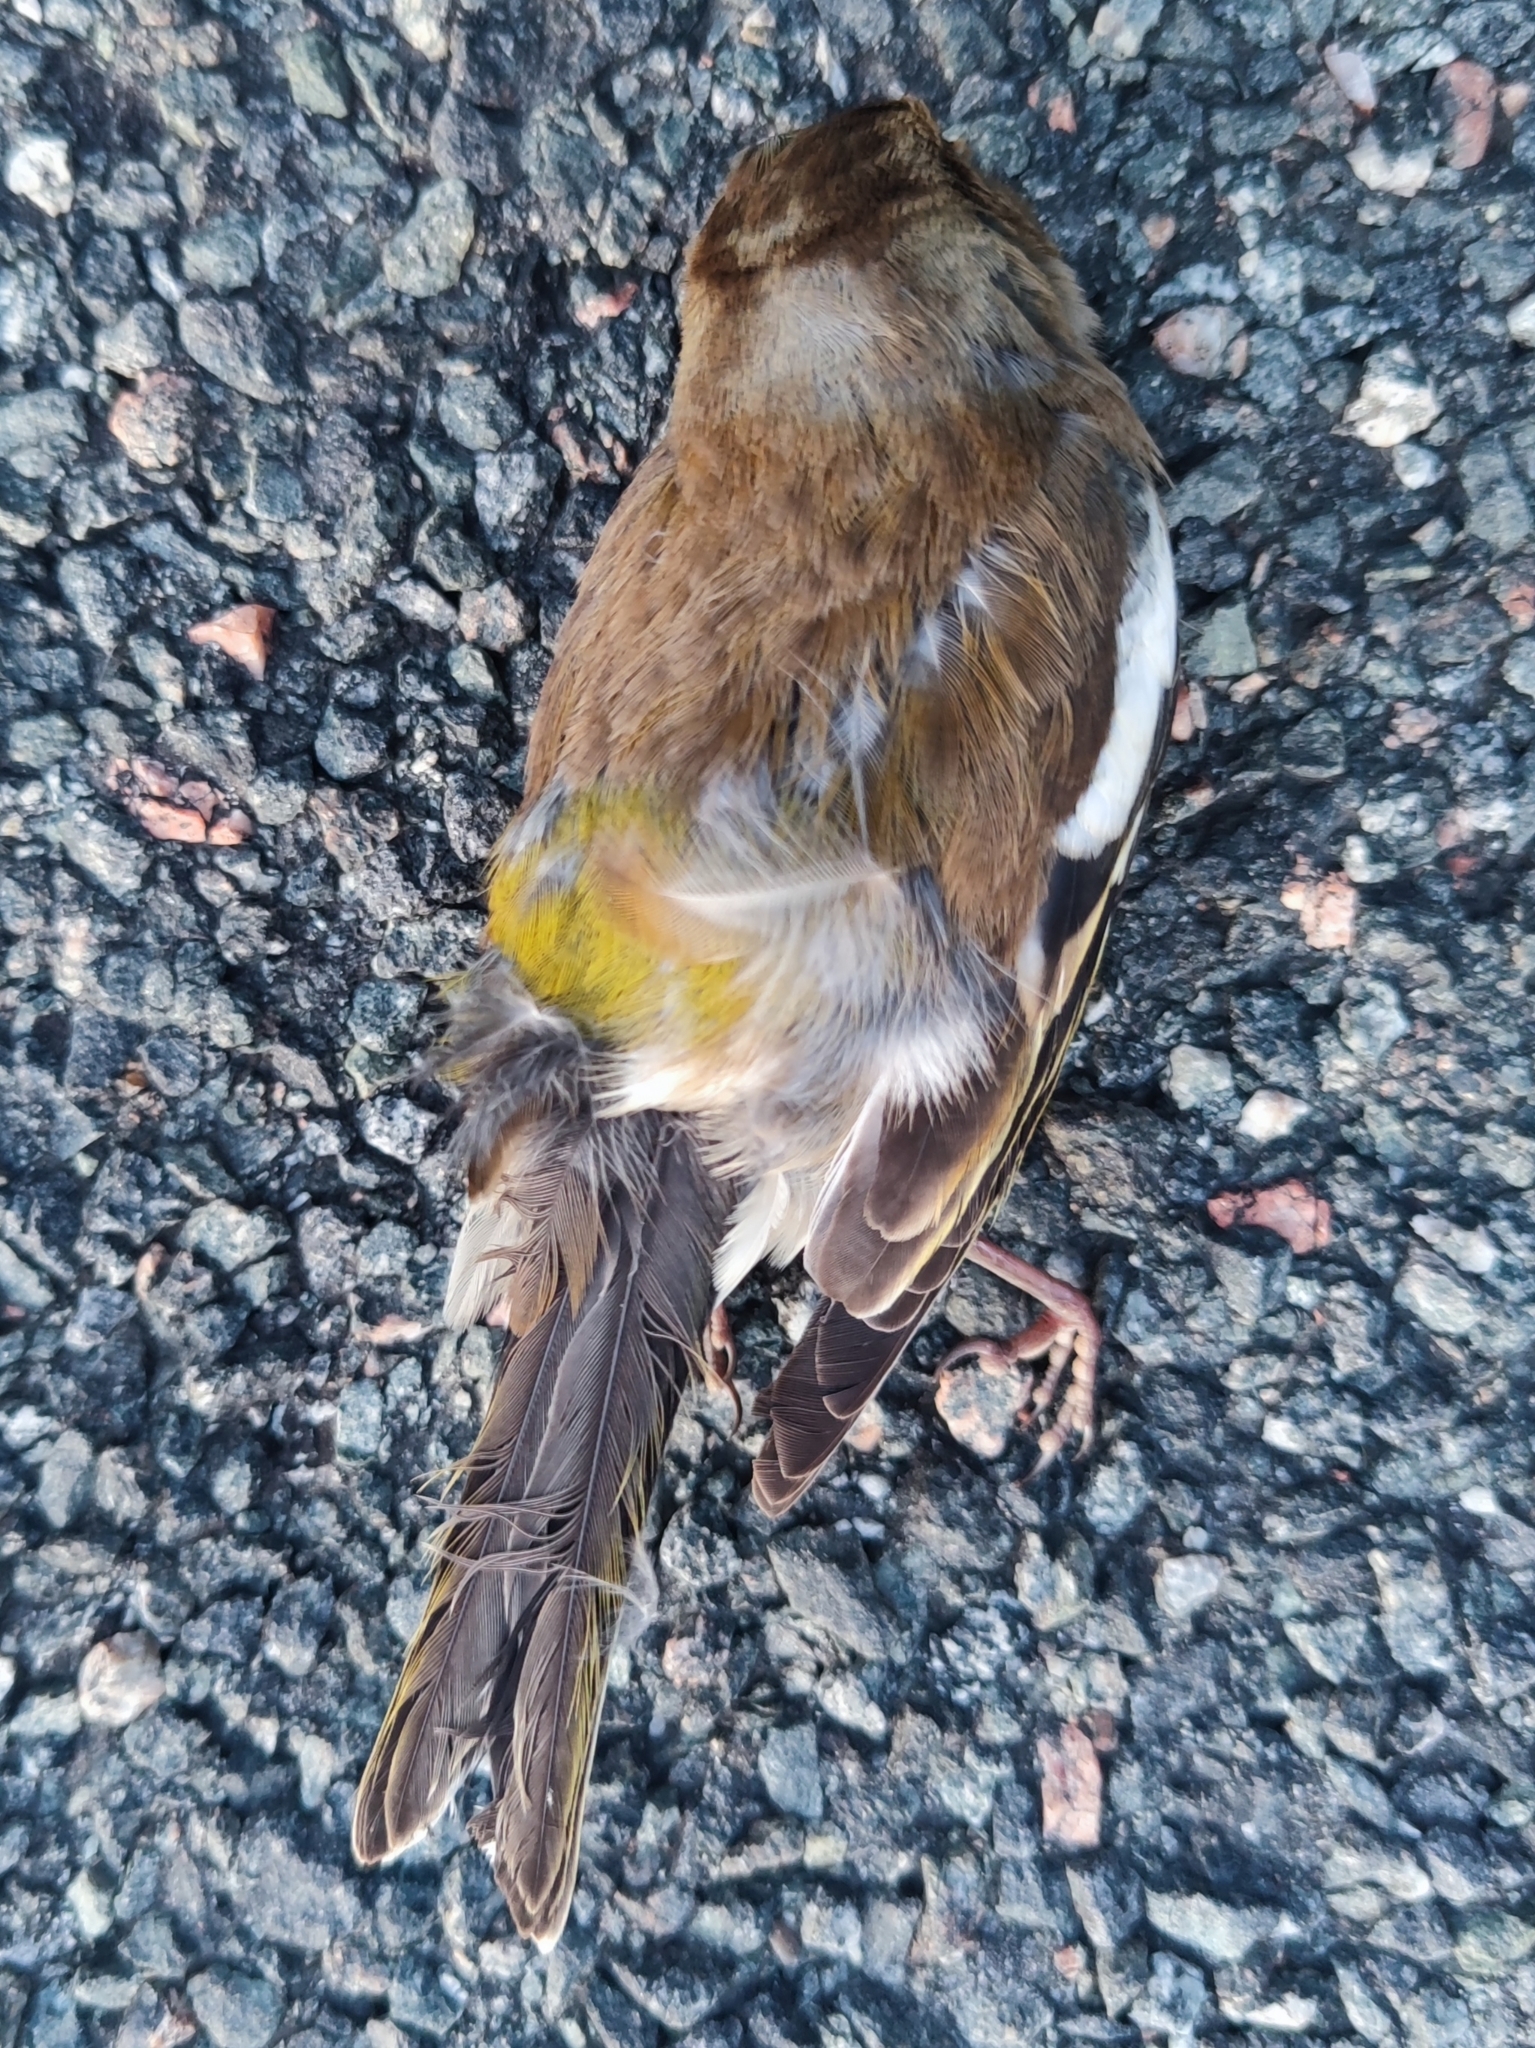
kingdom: Animalia
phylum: Chordata
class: Aves
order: Passeriformes
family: Fringillidae
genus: Fringilla
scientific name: Fringilla coelebs
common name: Common chaffinch
